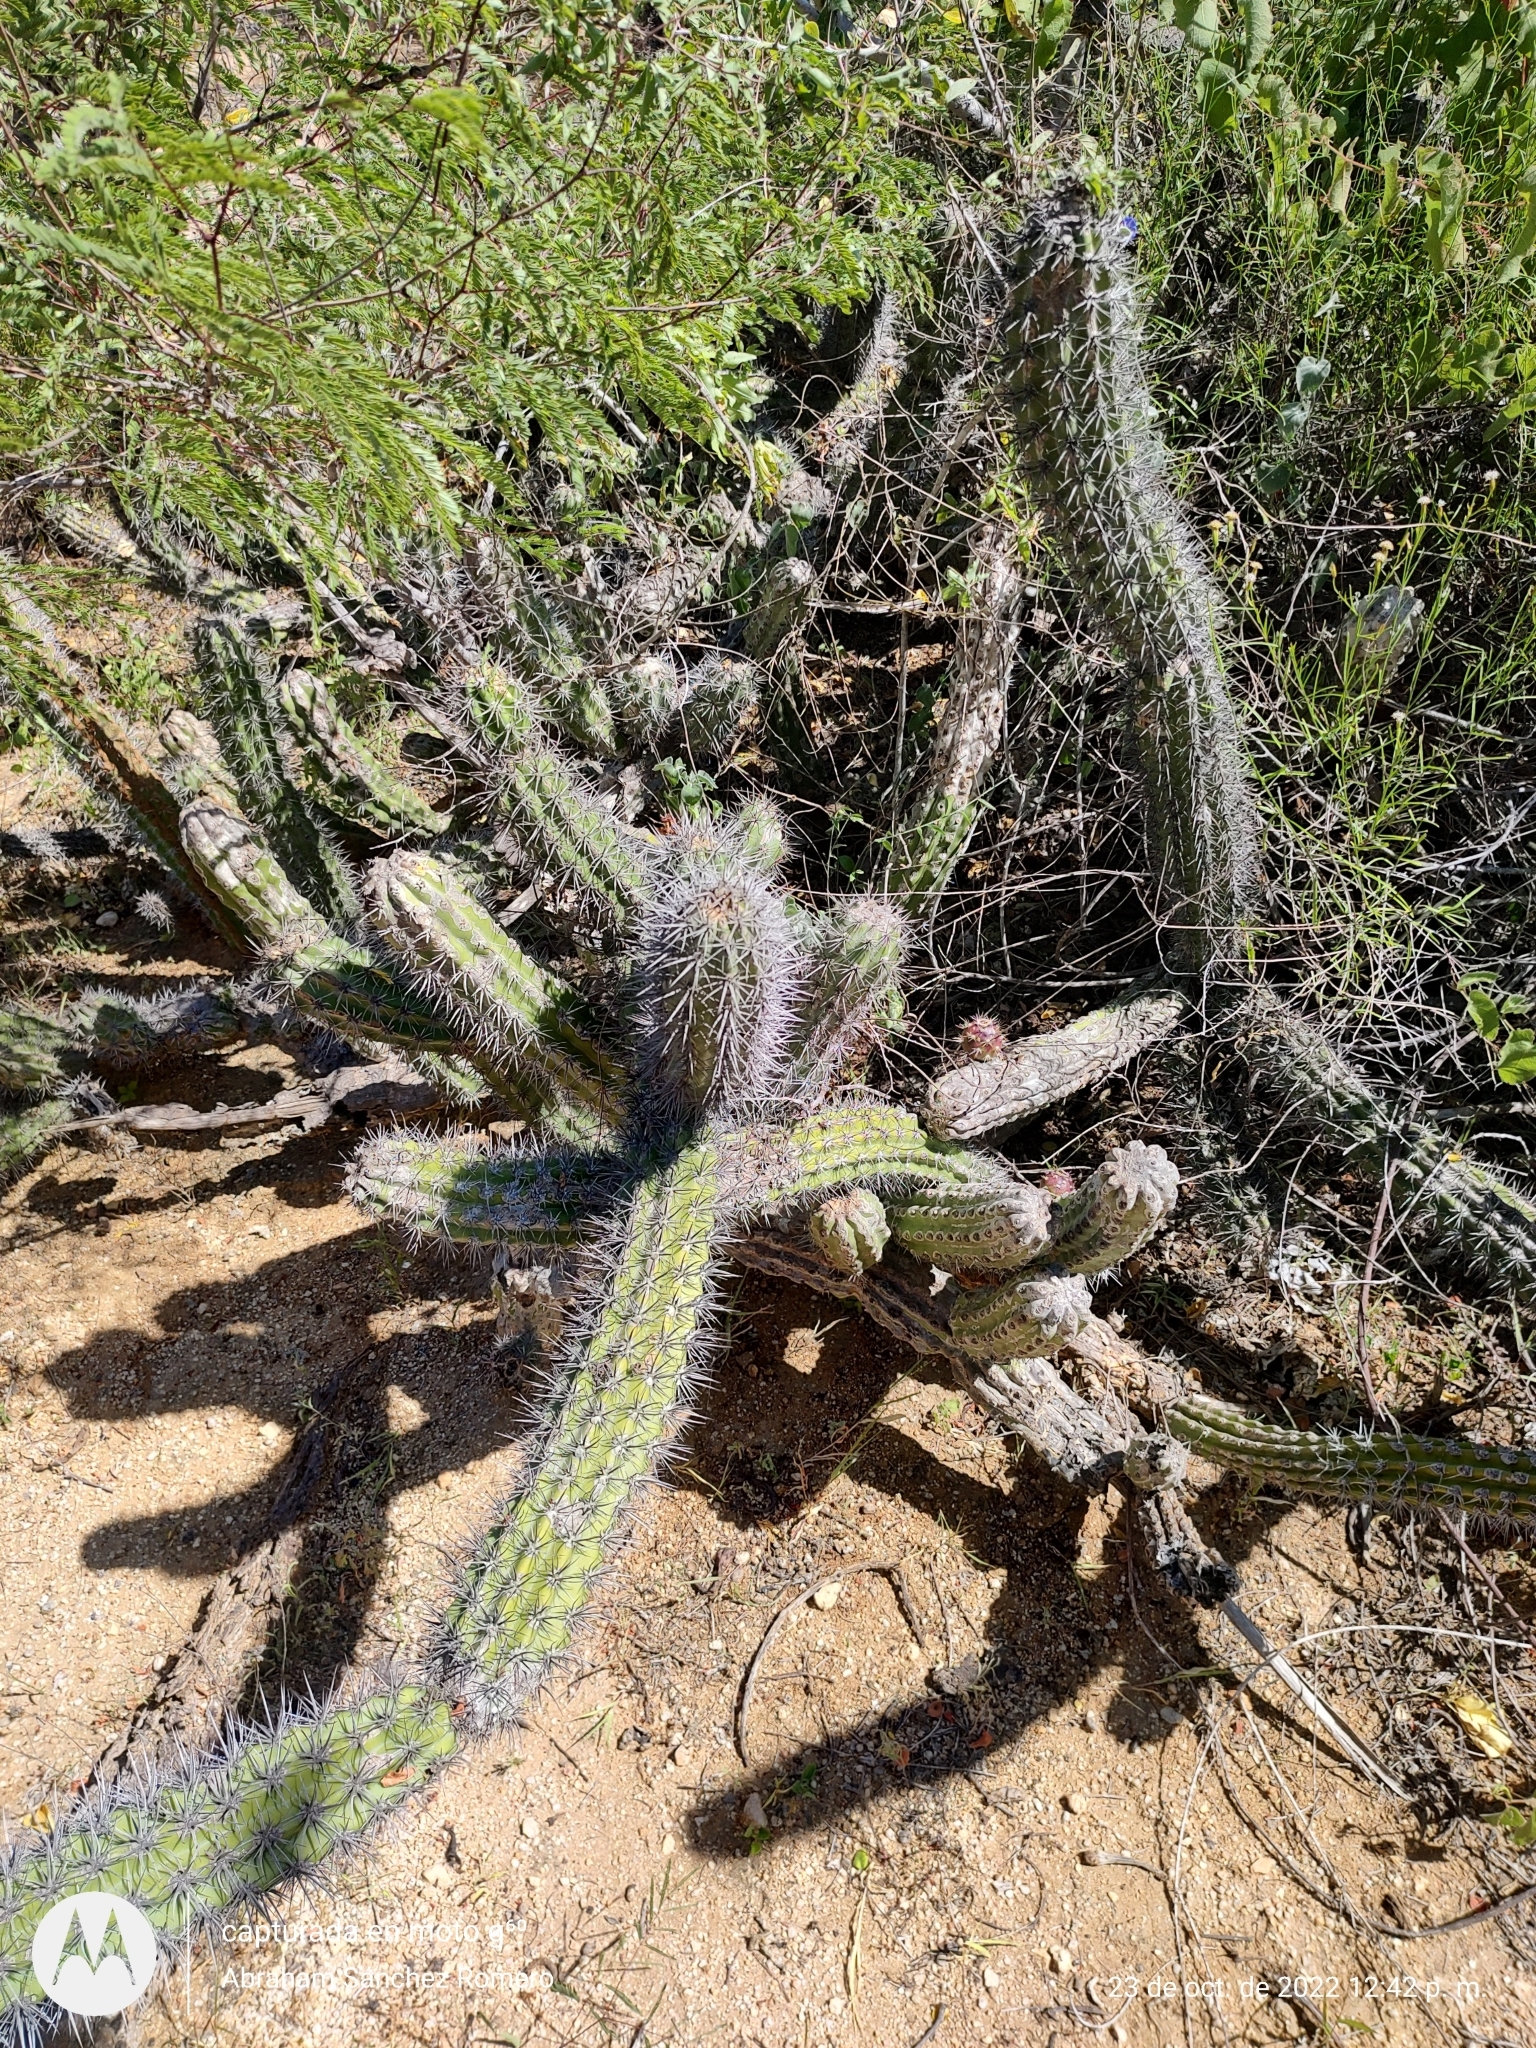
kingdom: Plantae
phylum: Tracheophyta
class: Magnoliopsida
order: Caryophyllales
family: Cactaceae
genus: Stenocereus
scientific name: Stenocereus gummosus
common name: Dagger cactus
